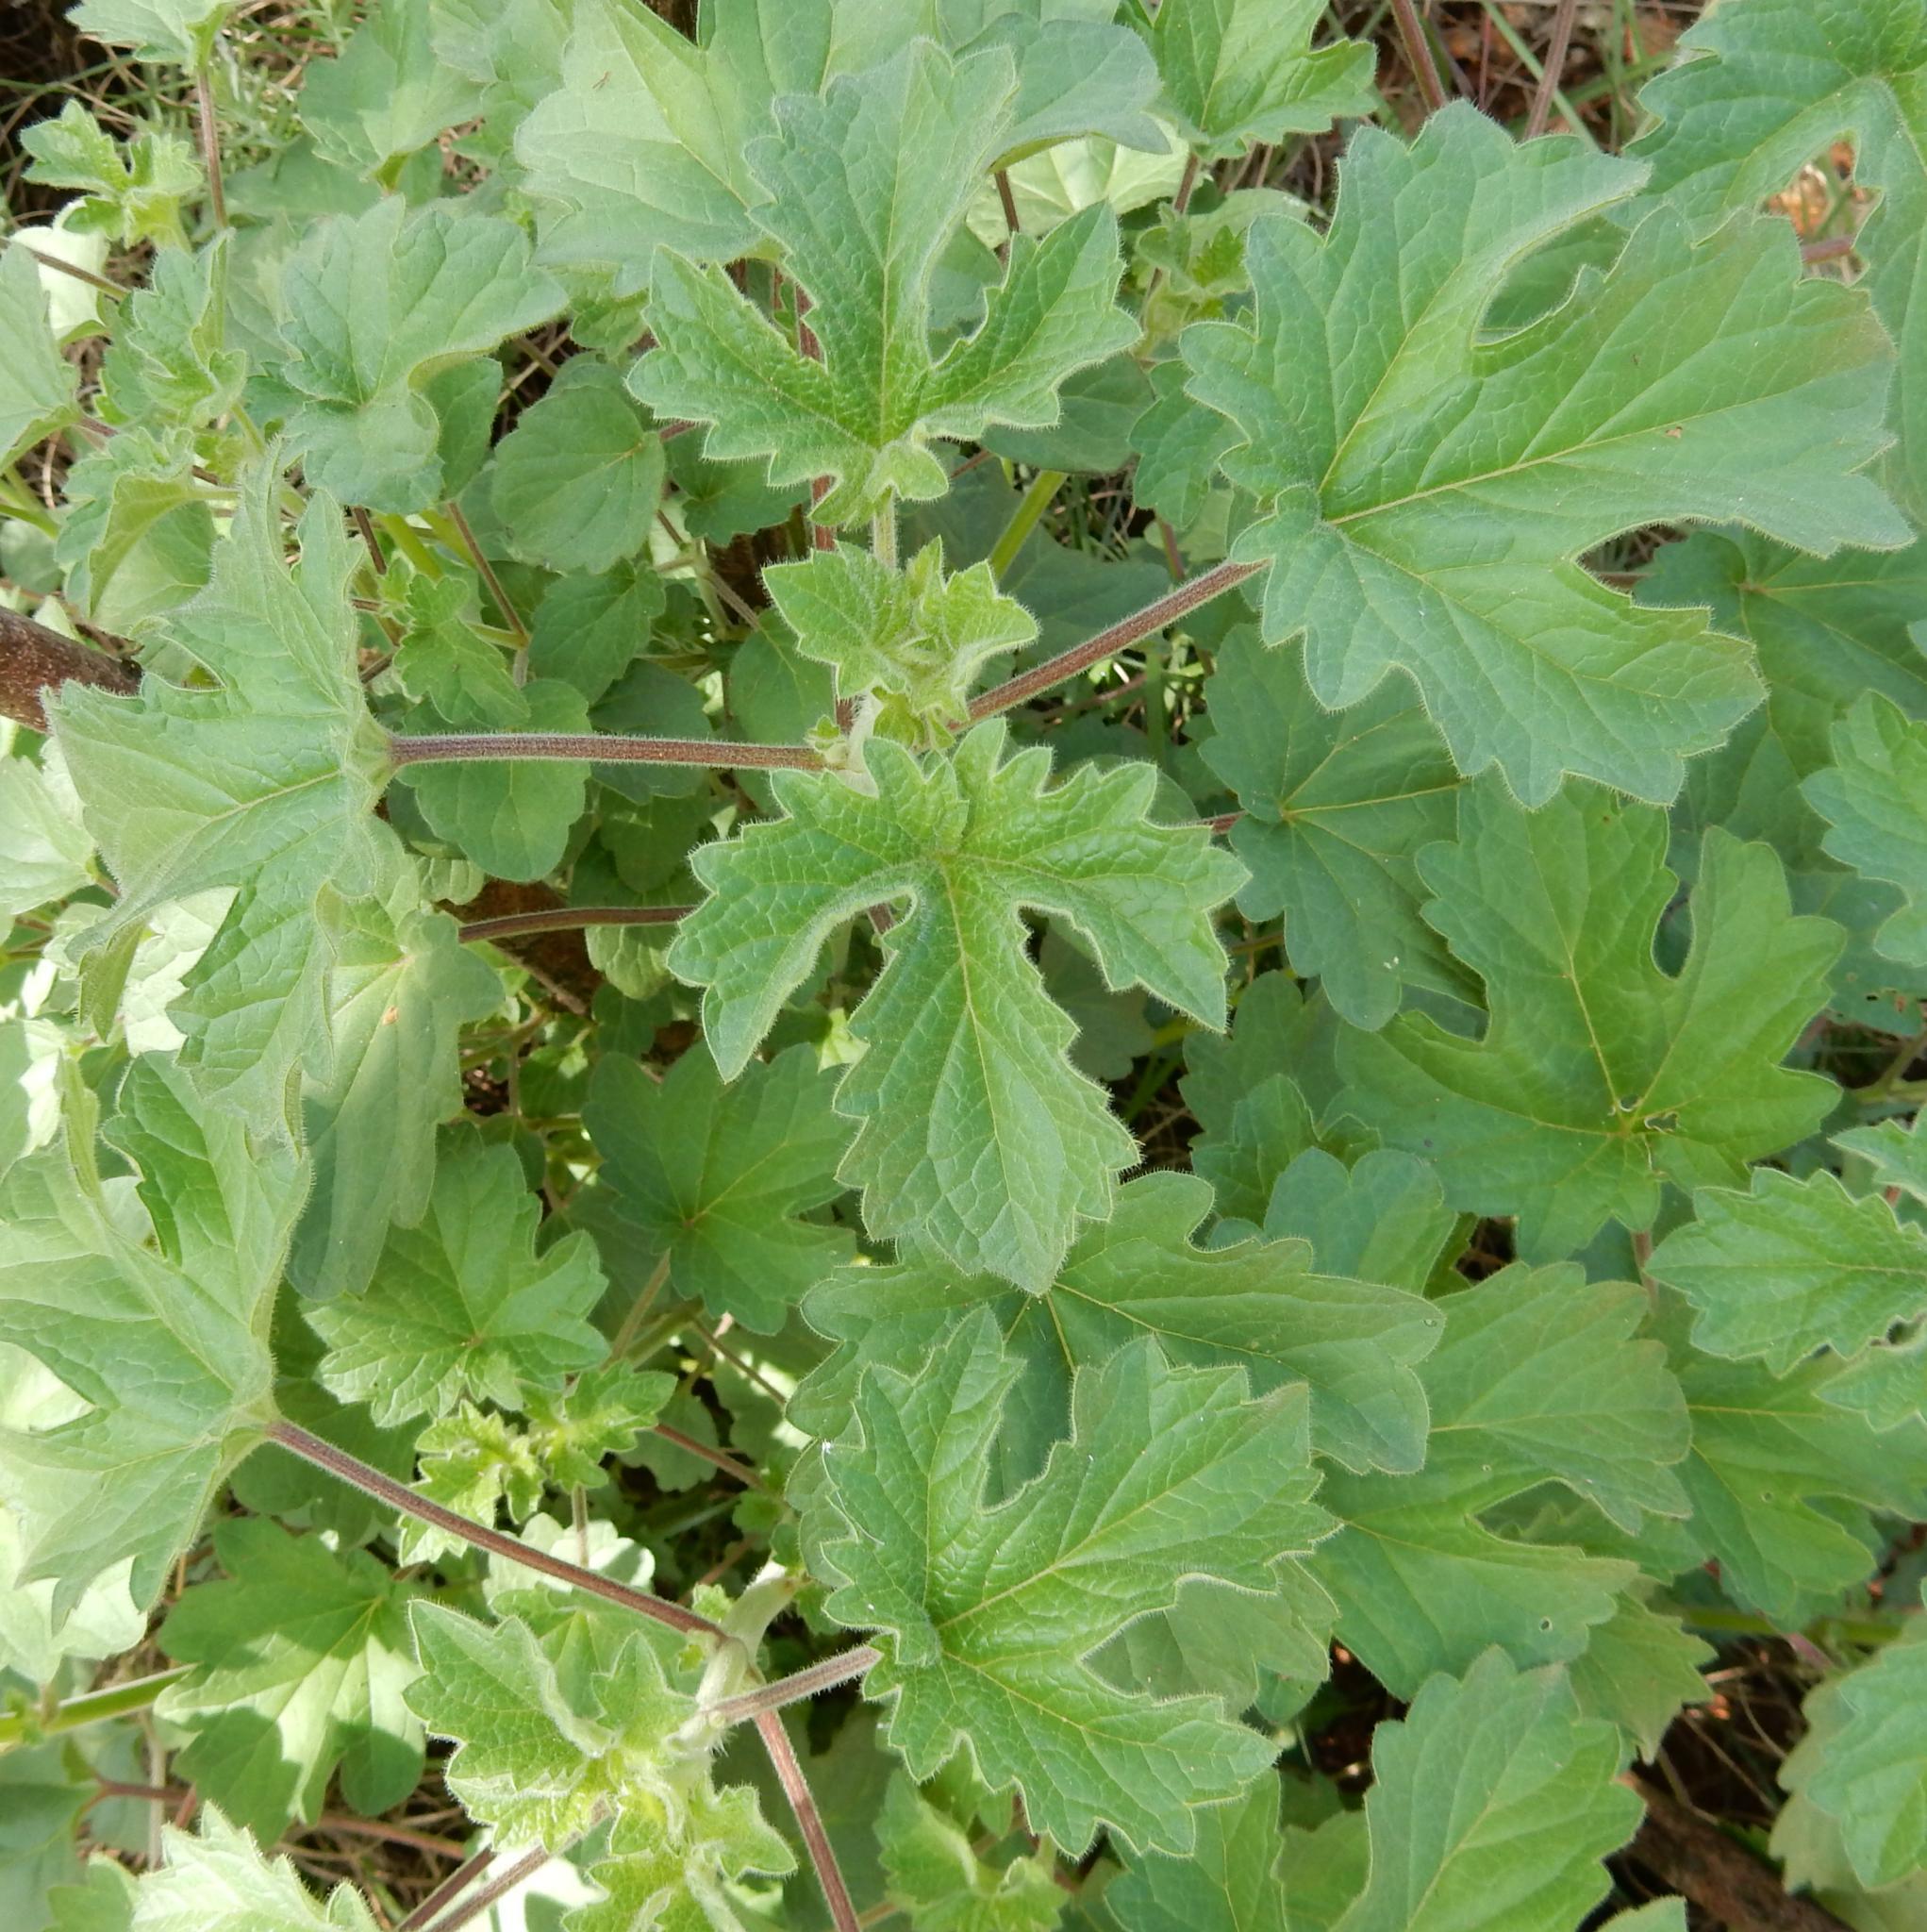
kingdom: Plantae
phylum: Tracheophyta
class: Magnoliopsida
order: Lamiales
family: Pedaliaceae
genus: Sesamum
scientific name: Sesamum trilobum
